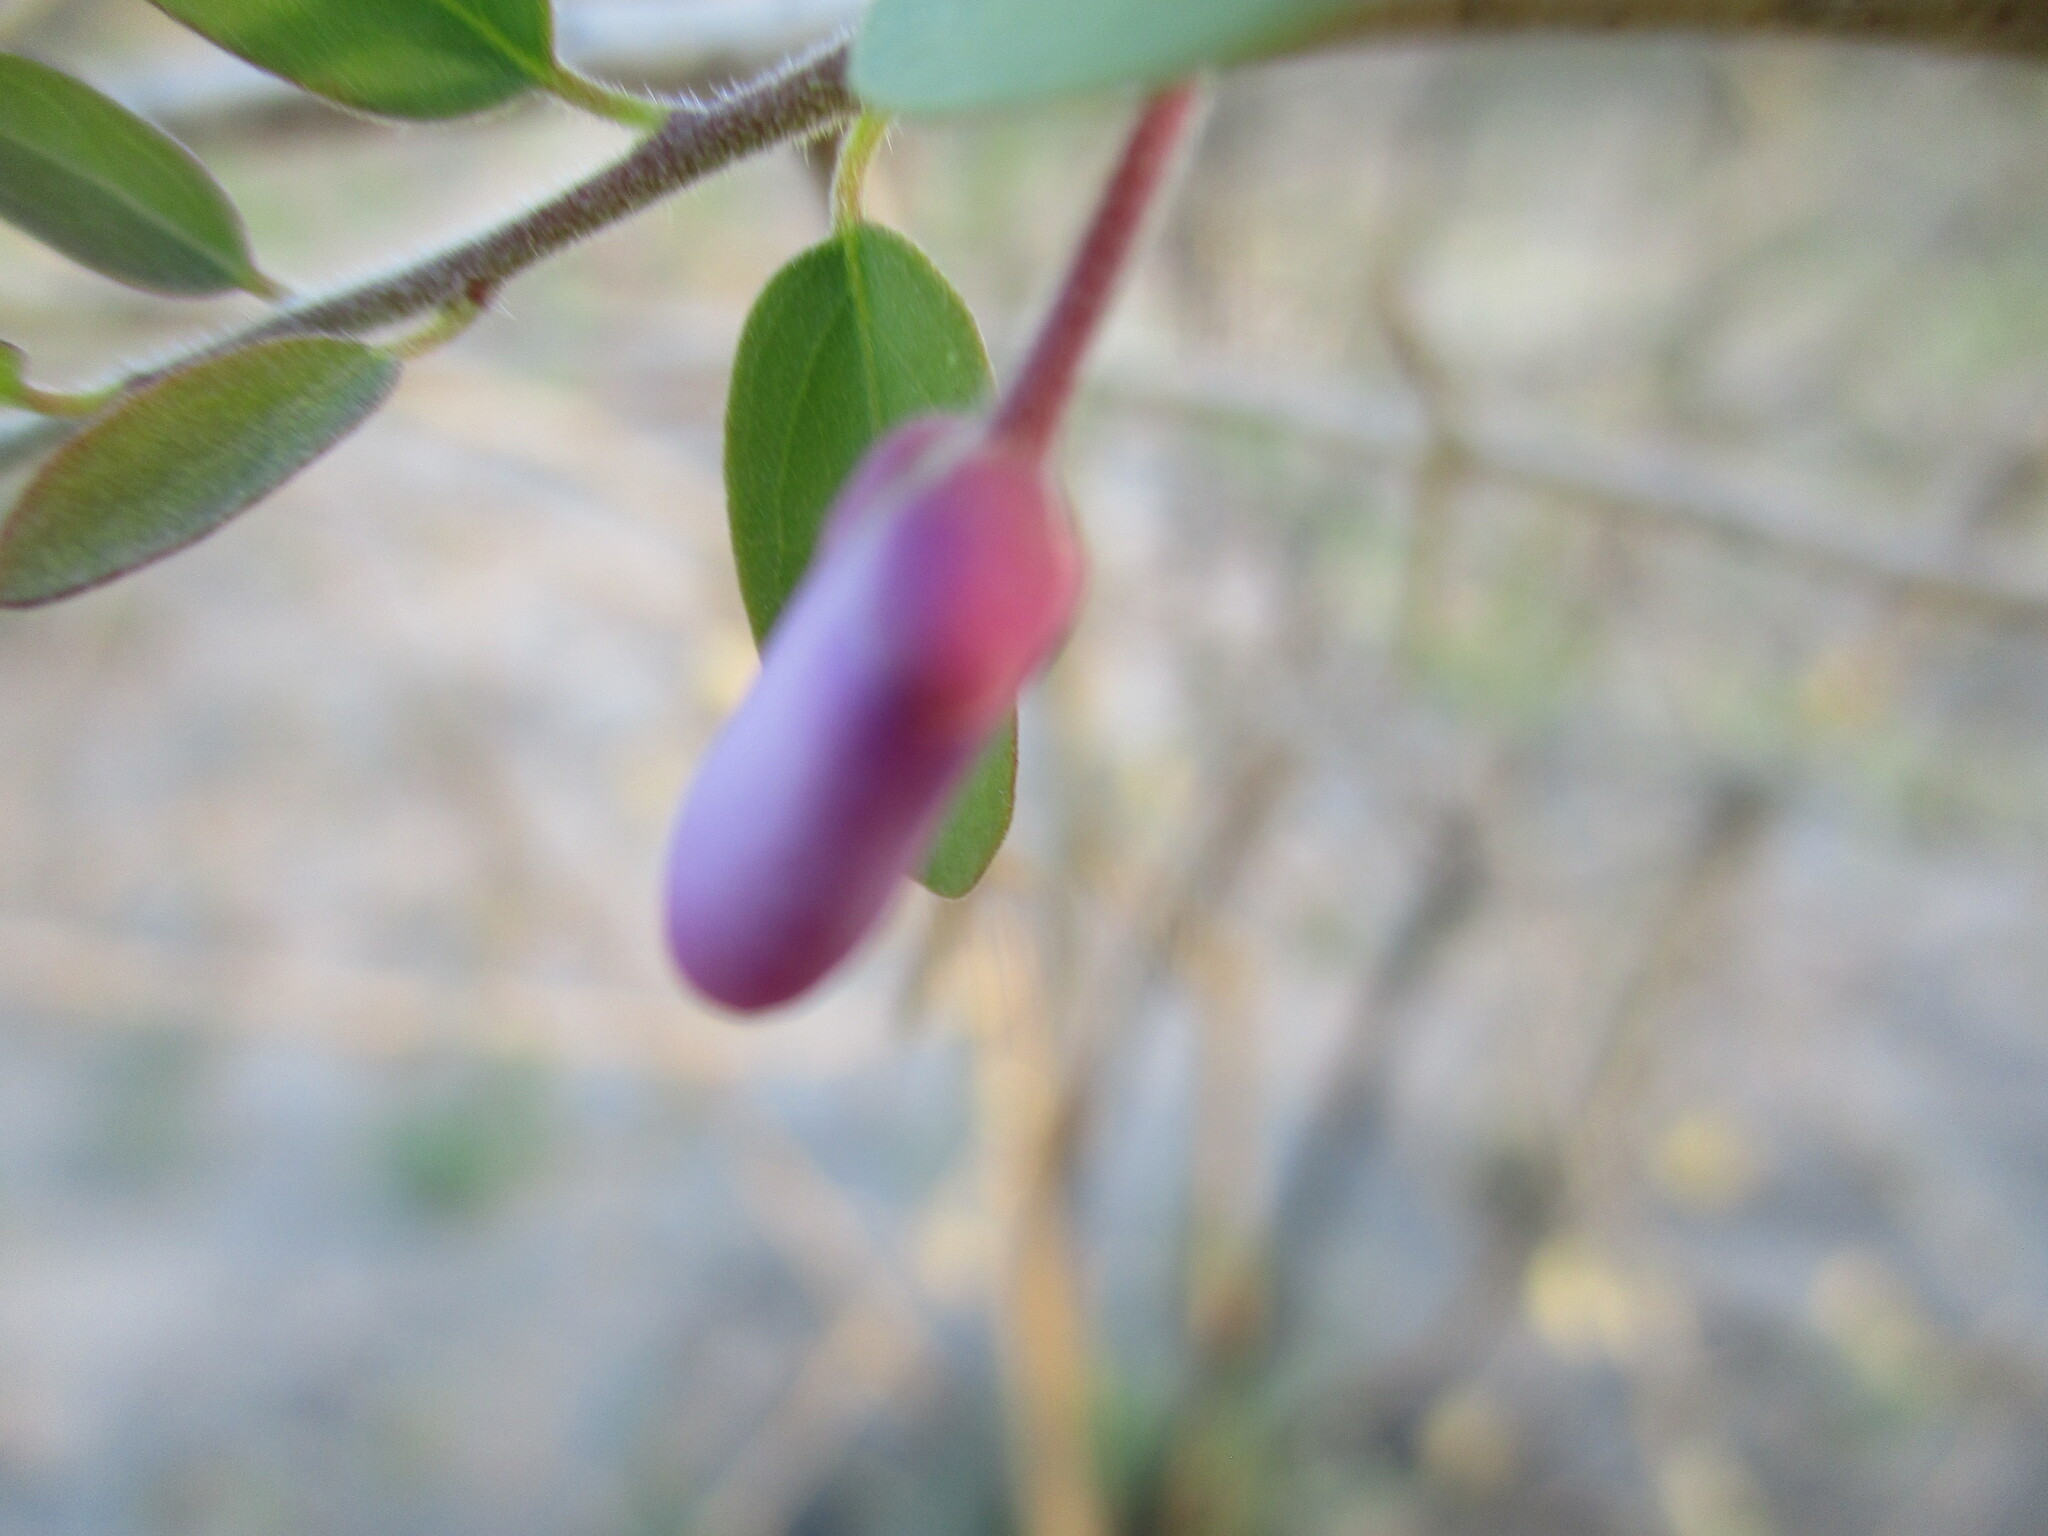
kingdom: Plantae
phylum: Tracheophyta
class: Magnoliopsida
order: Fabales
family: Polygalaceae
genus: Securidaca
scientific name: Securidaca longepedunculata
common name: Violet tree
